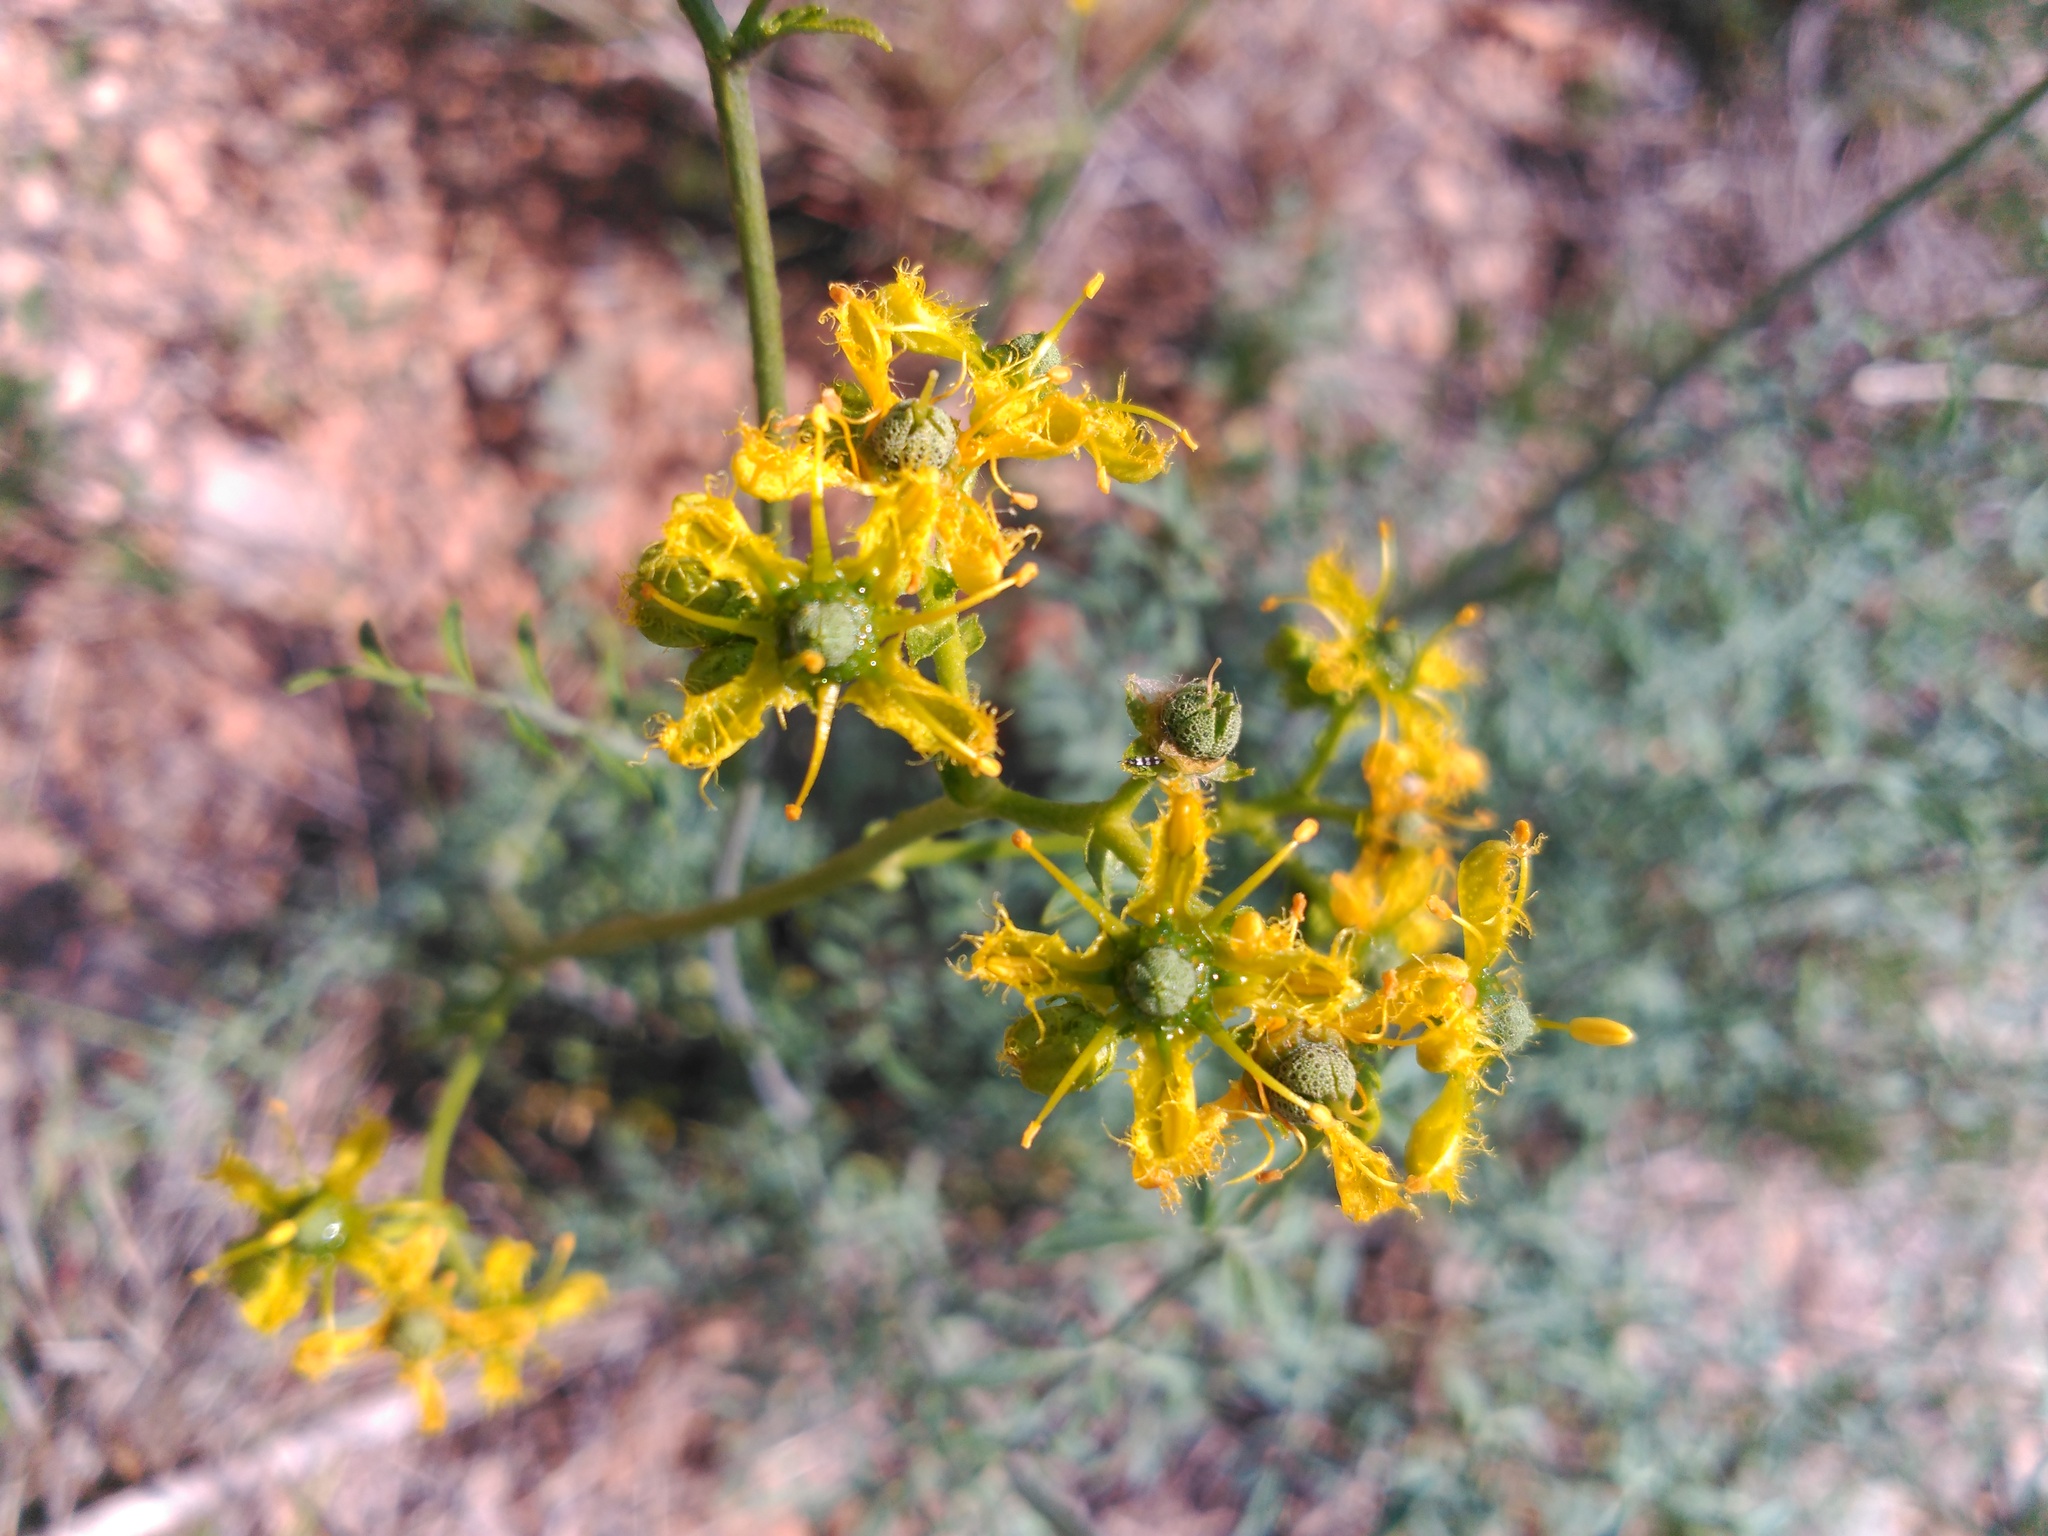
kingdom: Plantae
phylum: Tracheophyta
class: Magnoliopsida
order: Sapindales
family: Rutaceae
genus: Ruta
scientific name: Ruta angustifolia
